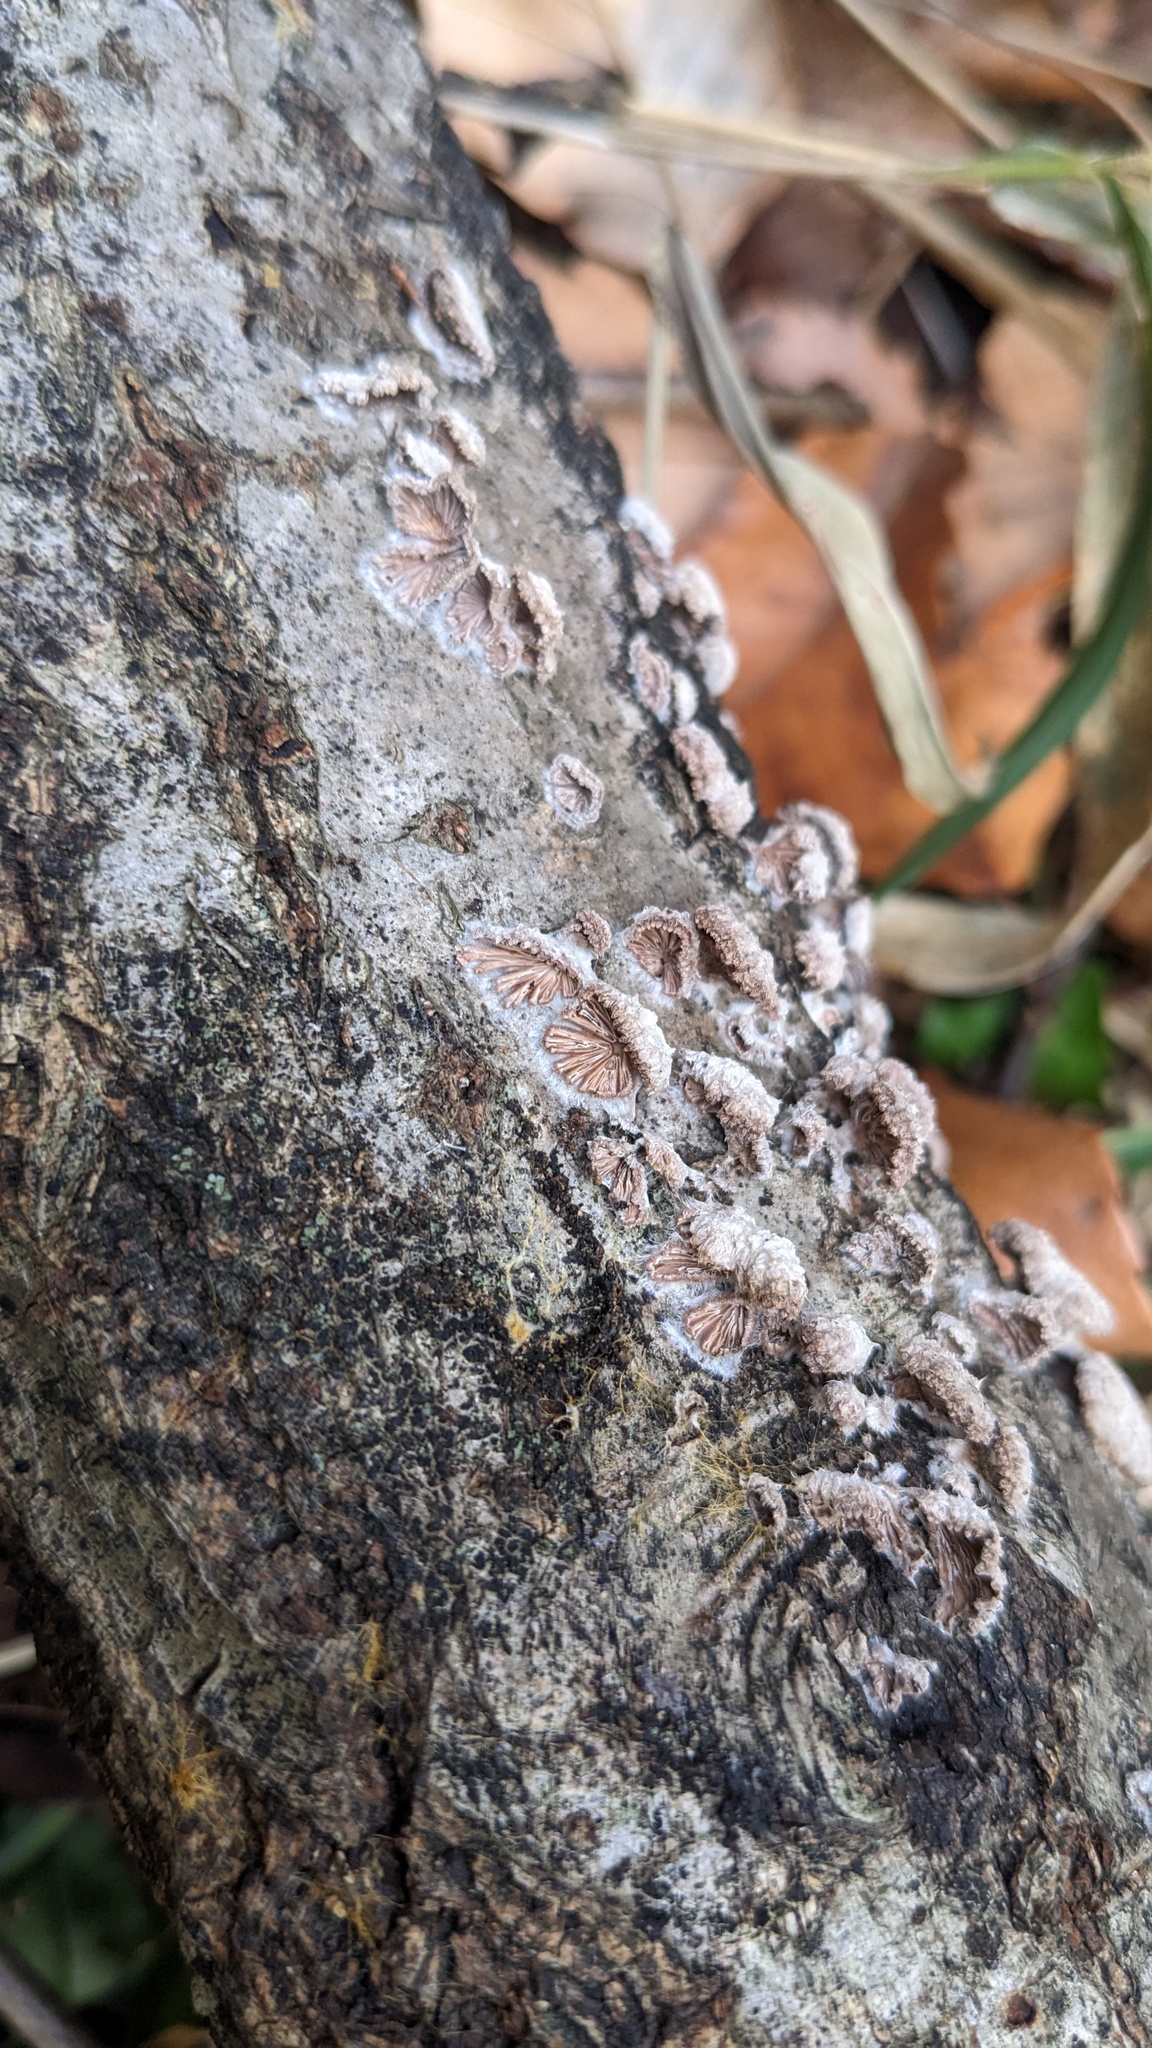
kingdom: Fungi
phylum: Basidiomycota
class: Agaricomycetes
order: Agaricales
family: Schizophyllaceae
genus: Schizophyllum
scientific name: Schizophyllum commune
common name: Common porecrust
